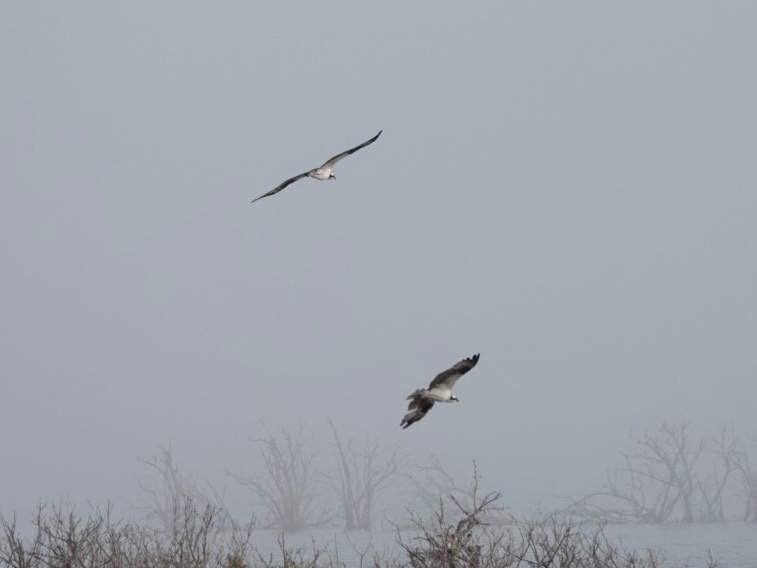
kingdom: Animalia
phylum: Chordata
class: Aves
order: Accipitriformes
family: Pandionidae
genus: Pandion
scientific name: Pandion haliaetus
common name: Osprey
